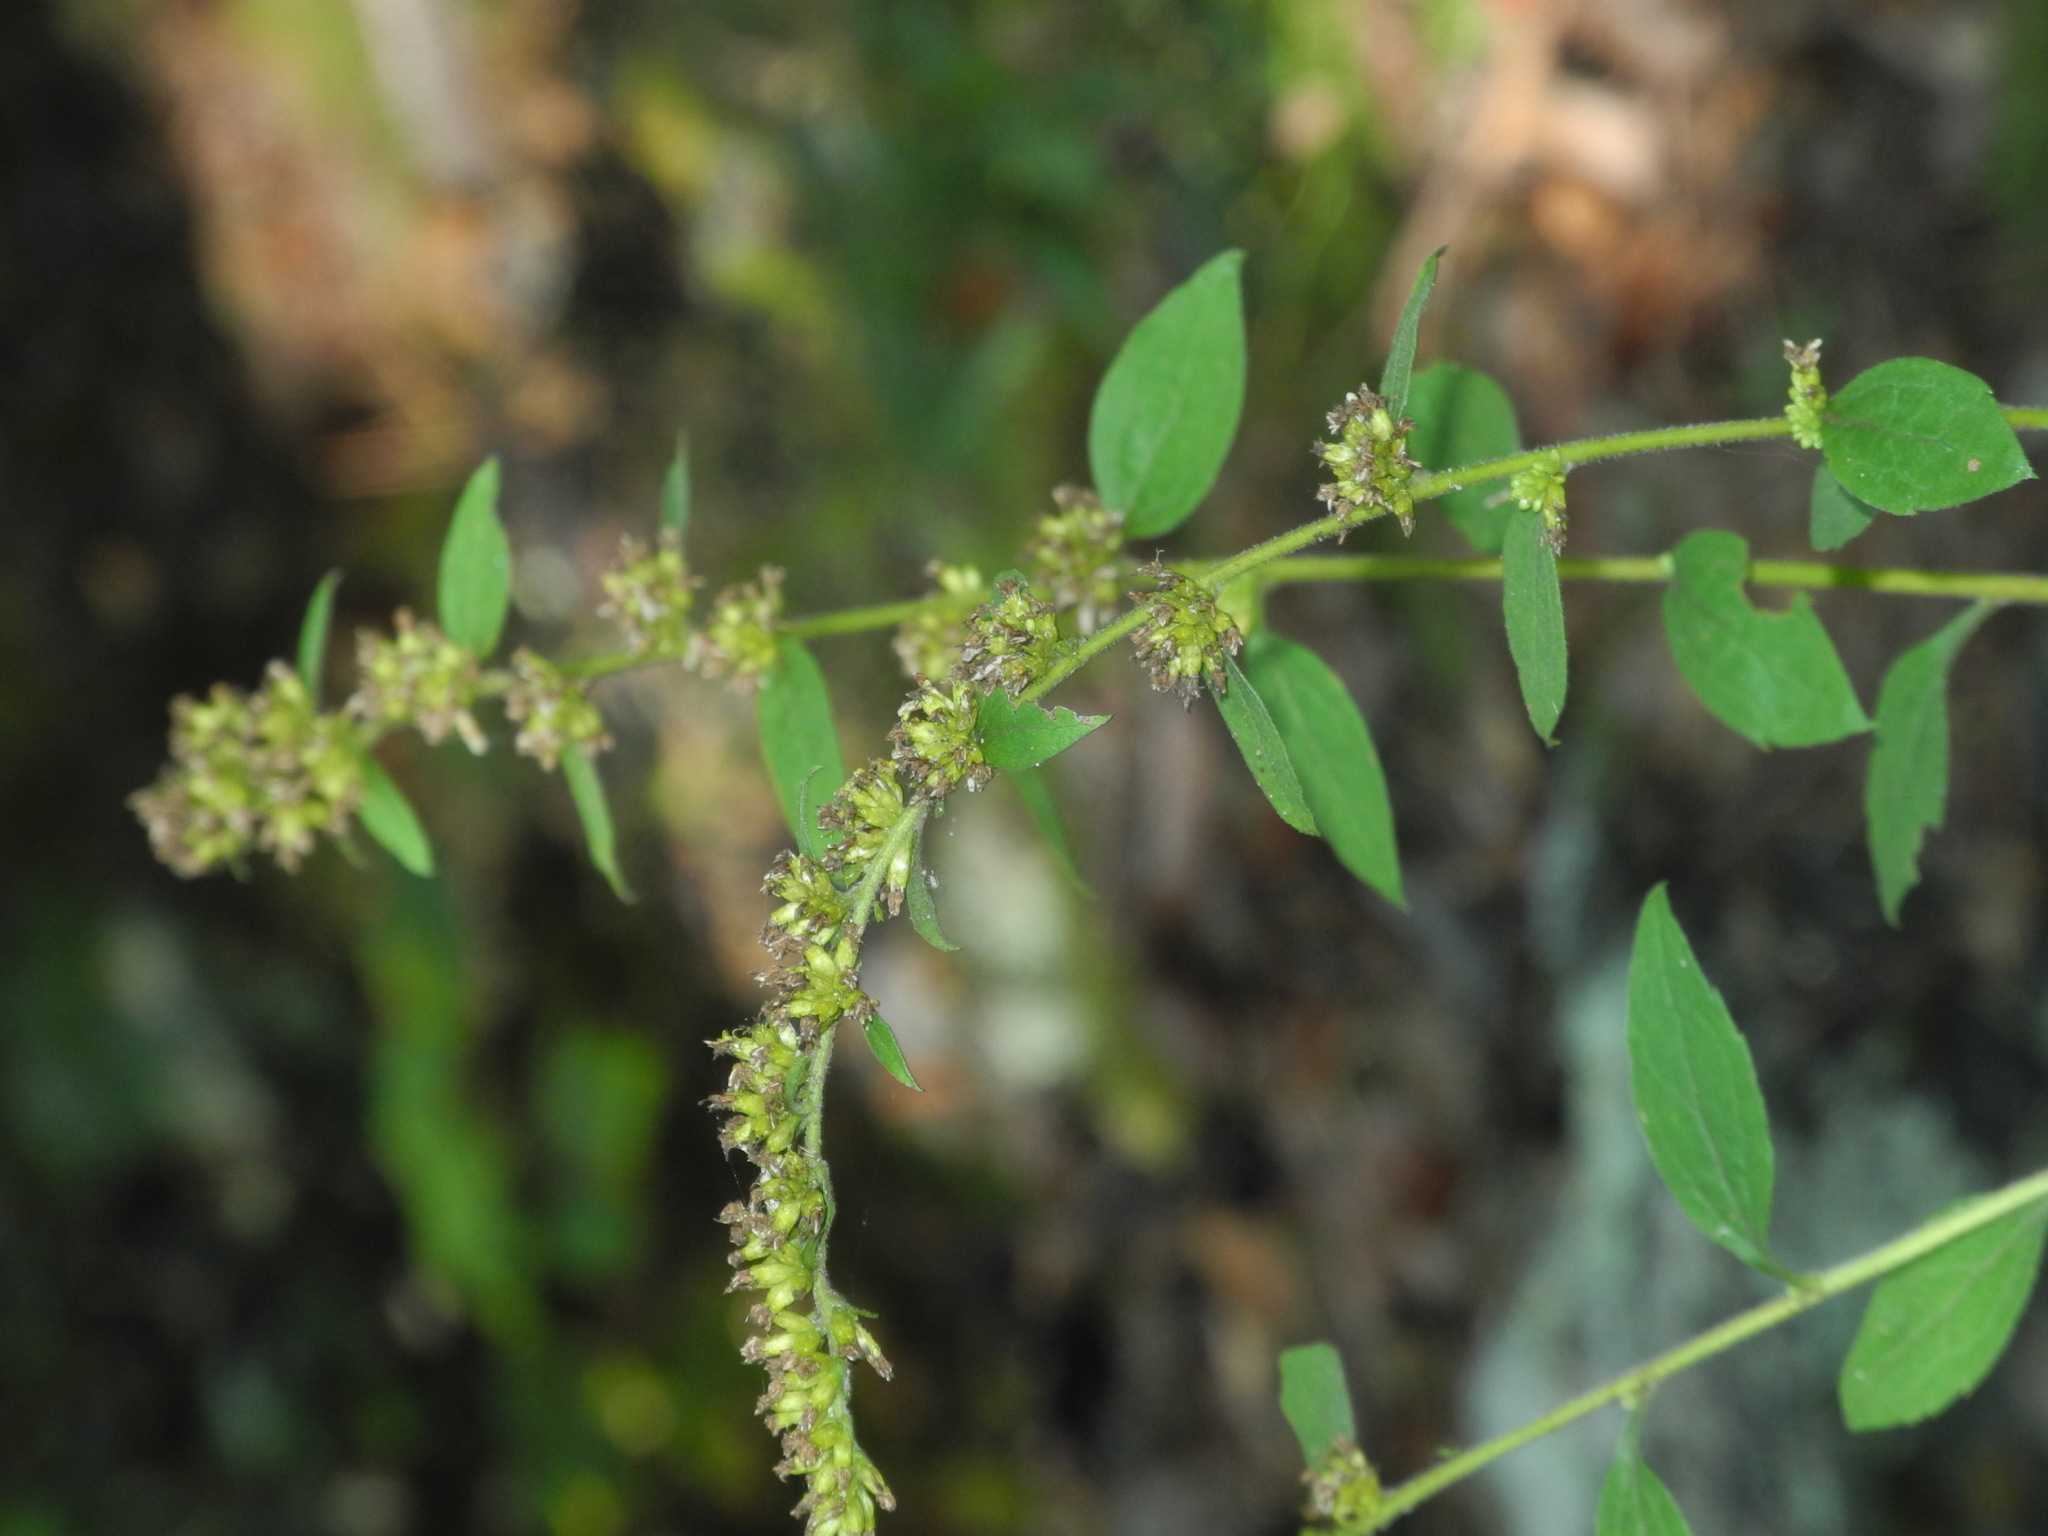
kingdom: Plantae
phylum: Tracheophyta
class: Magnoliopsida
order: Asterales
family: Asteraceae
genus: Solidago
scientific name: Solidago sphacelata
